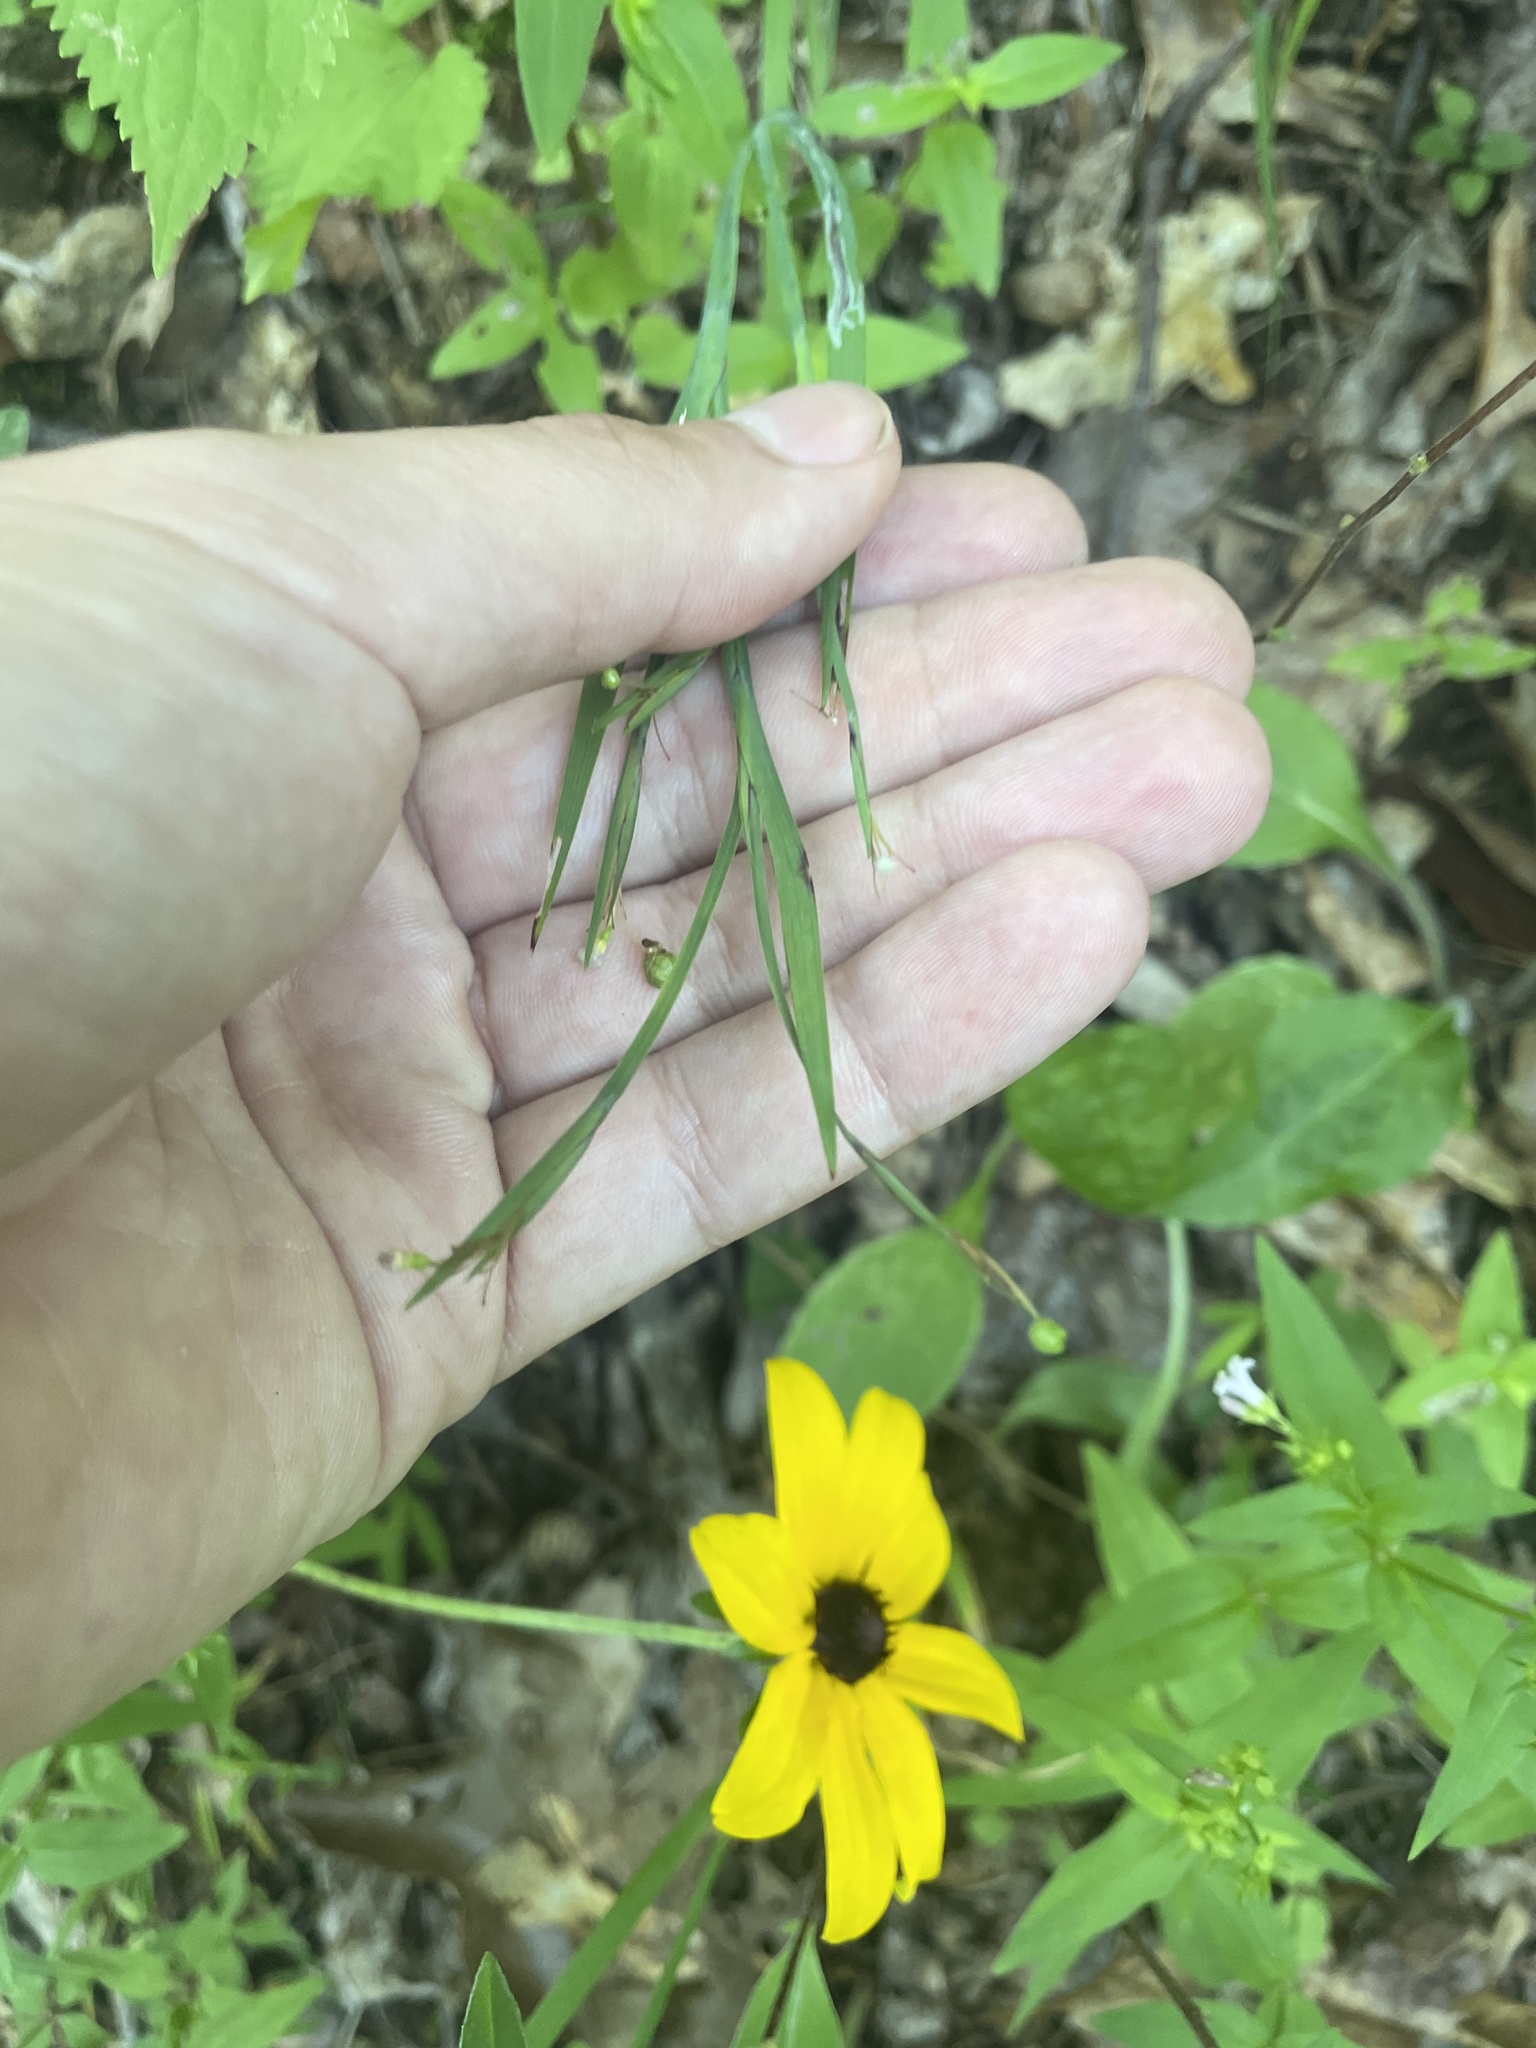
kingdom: Plantae
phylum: Tracheophyta
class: Liliopsida
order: Asparagales
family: Iridaceae
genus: Sisyrinchium
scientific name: Sisyrinchium dichotomum
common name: White irisette
